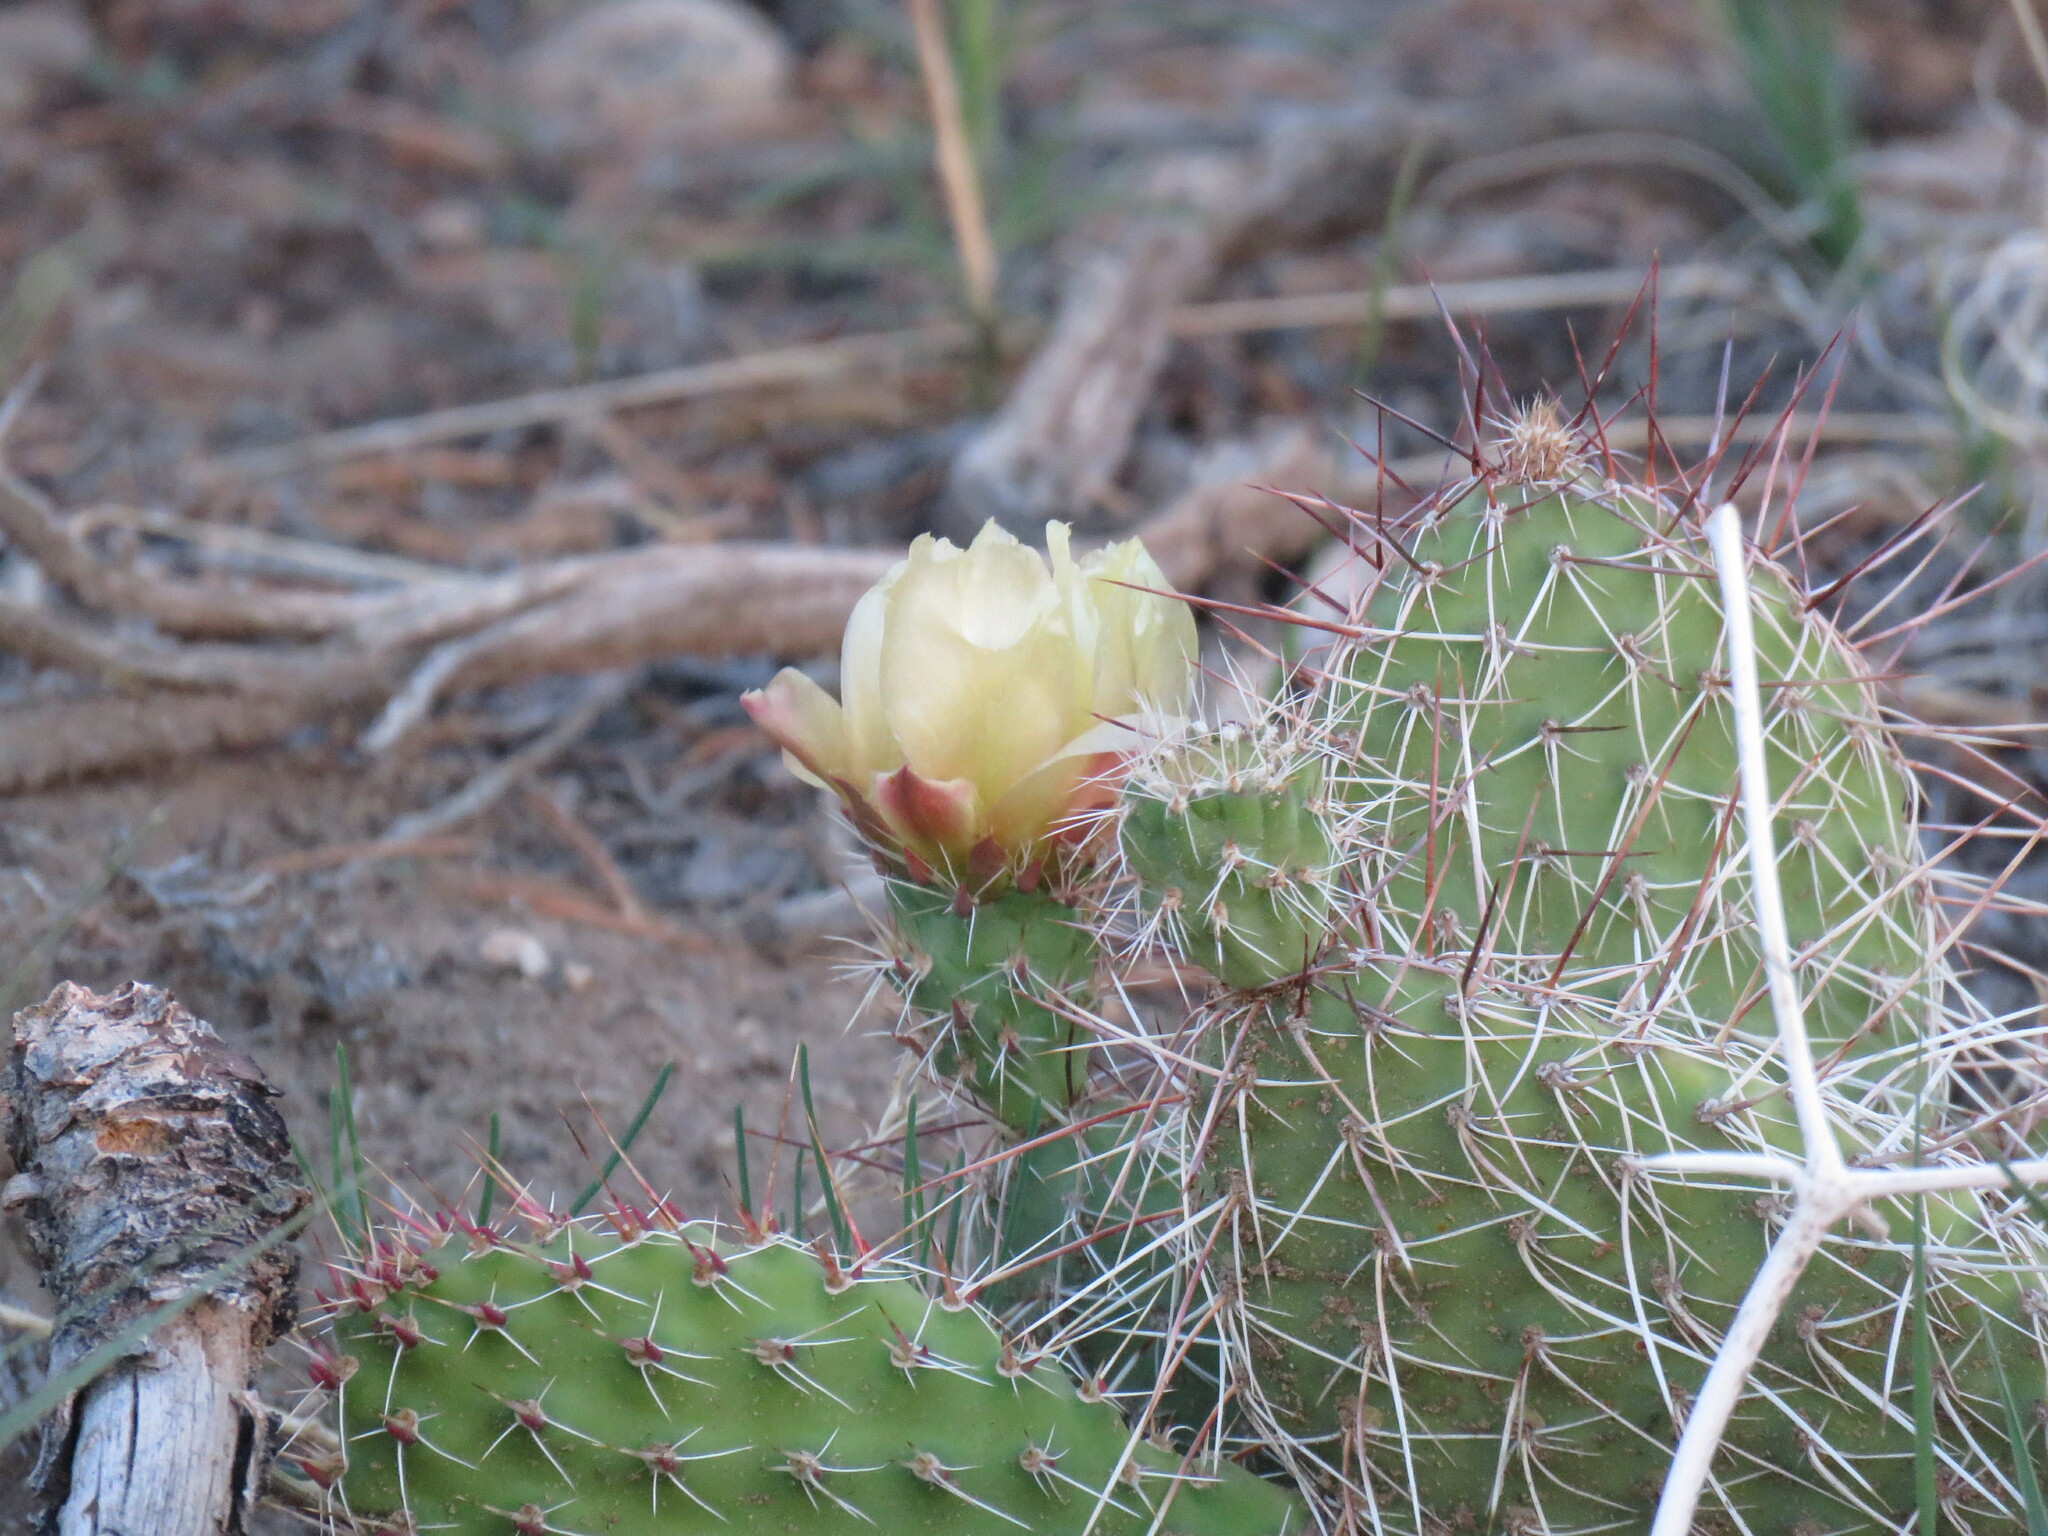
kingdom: Plantae
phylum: Tracheophyta
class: Magnoliopsida
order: Caryophyllales
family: Cactaceae
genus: Opuntia
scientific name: Opuntia polyacantha
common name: Plains prickly-pear
